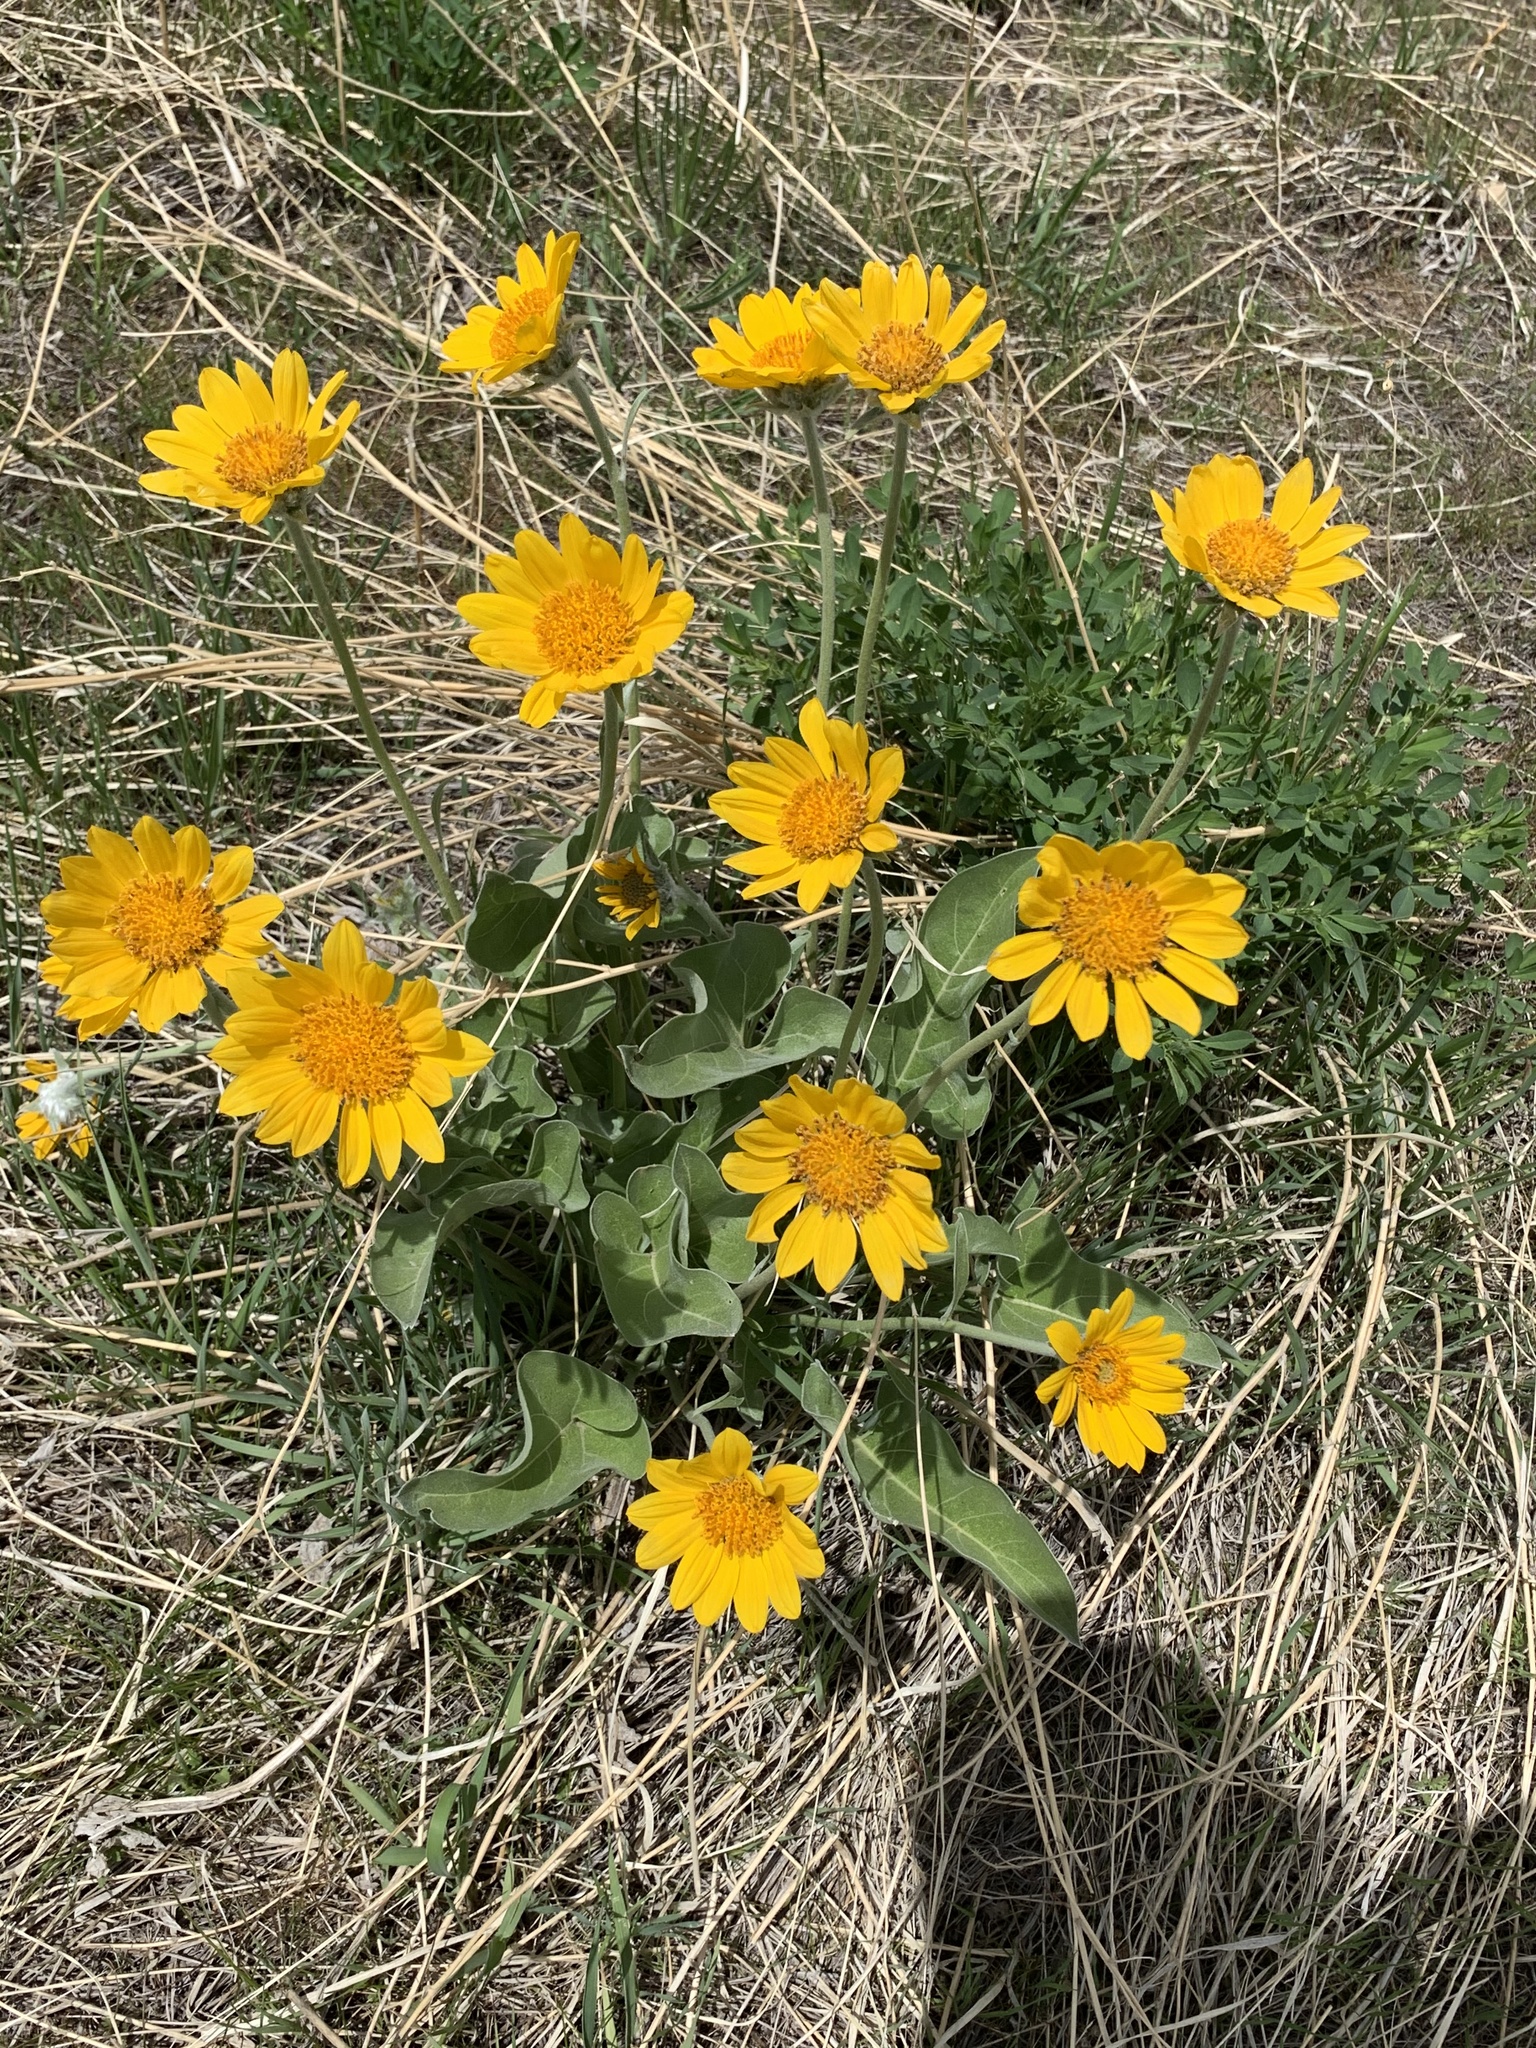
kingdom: Plantae
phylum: Tracheophyta
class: Magnoliopsida
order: Asterales
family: Asteraceae
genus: Wyethia
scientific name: Wyethia sagittata
